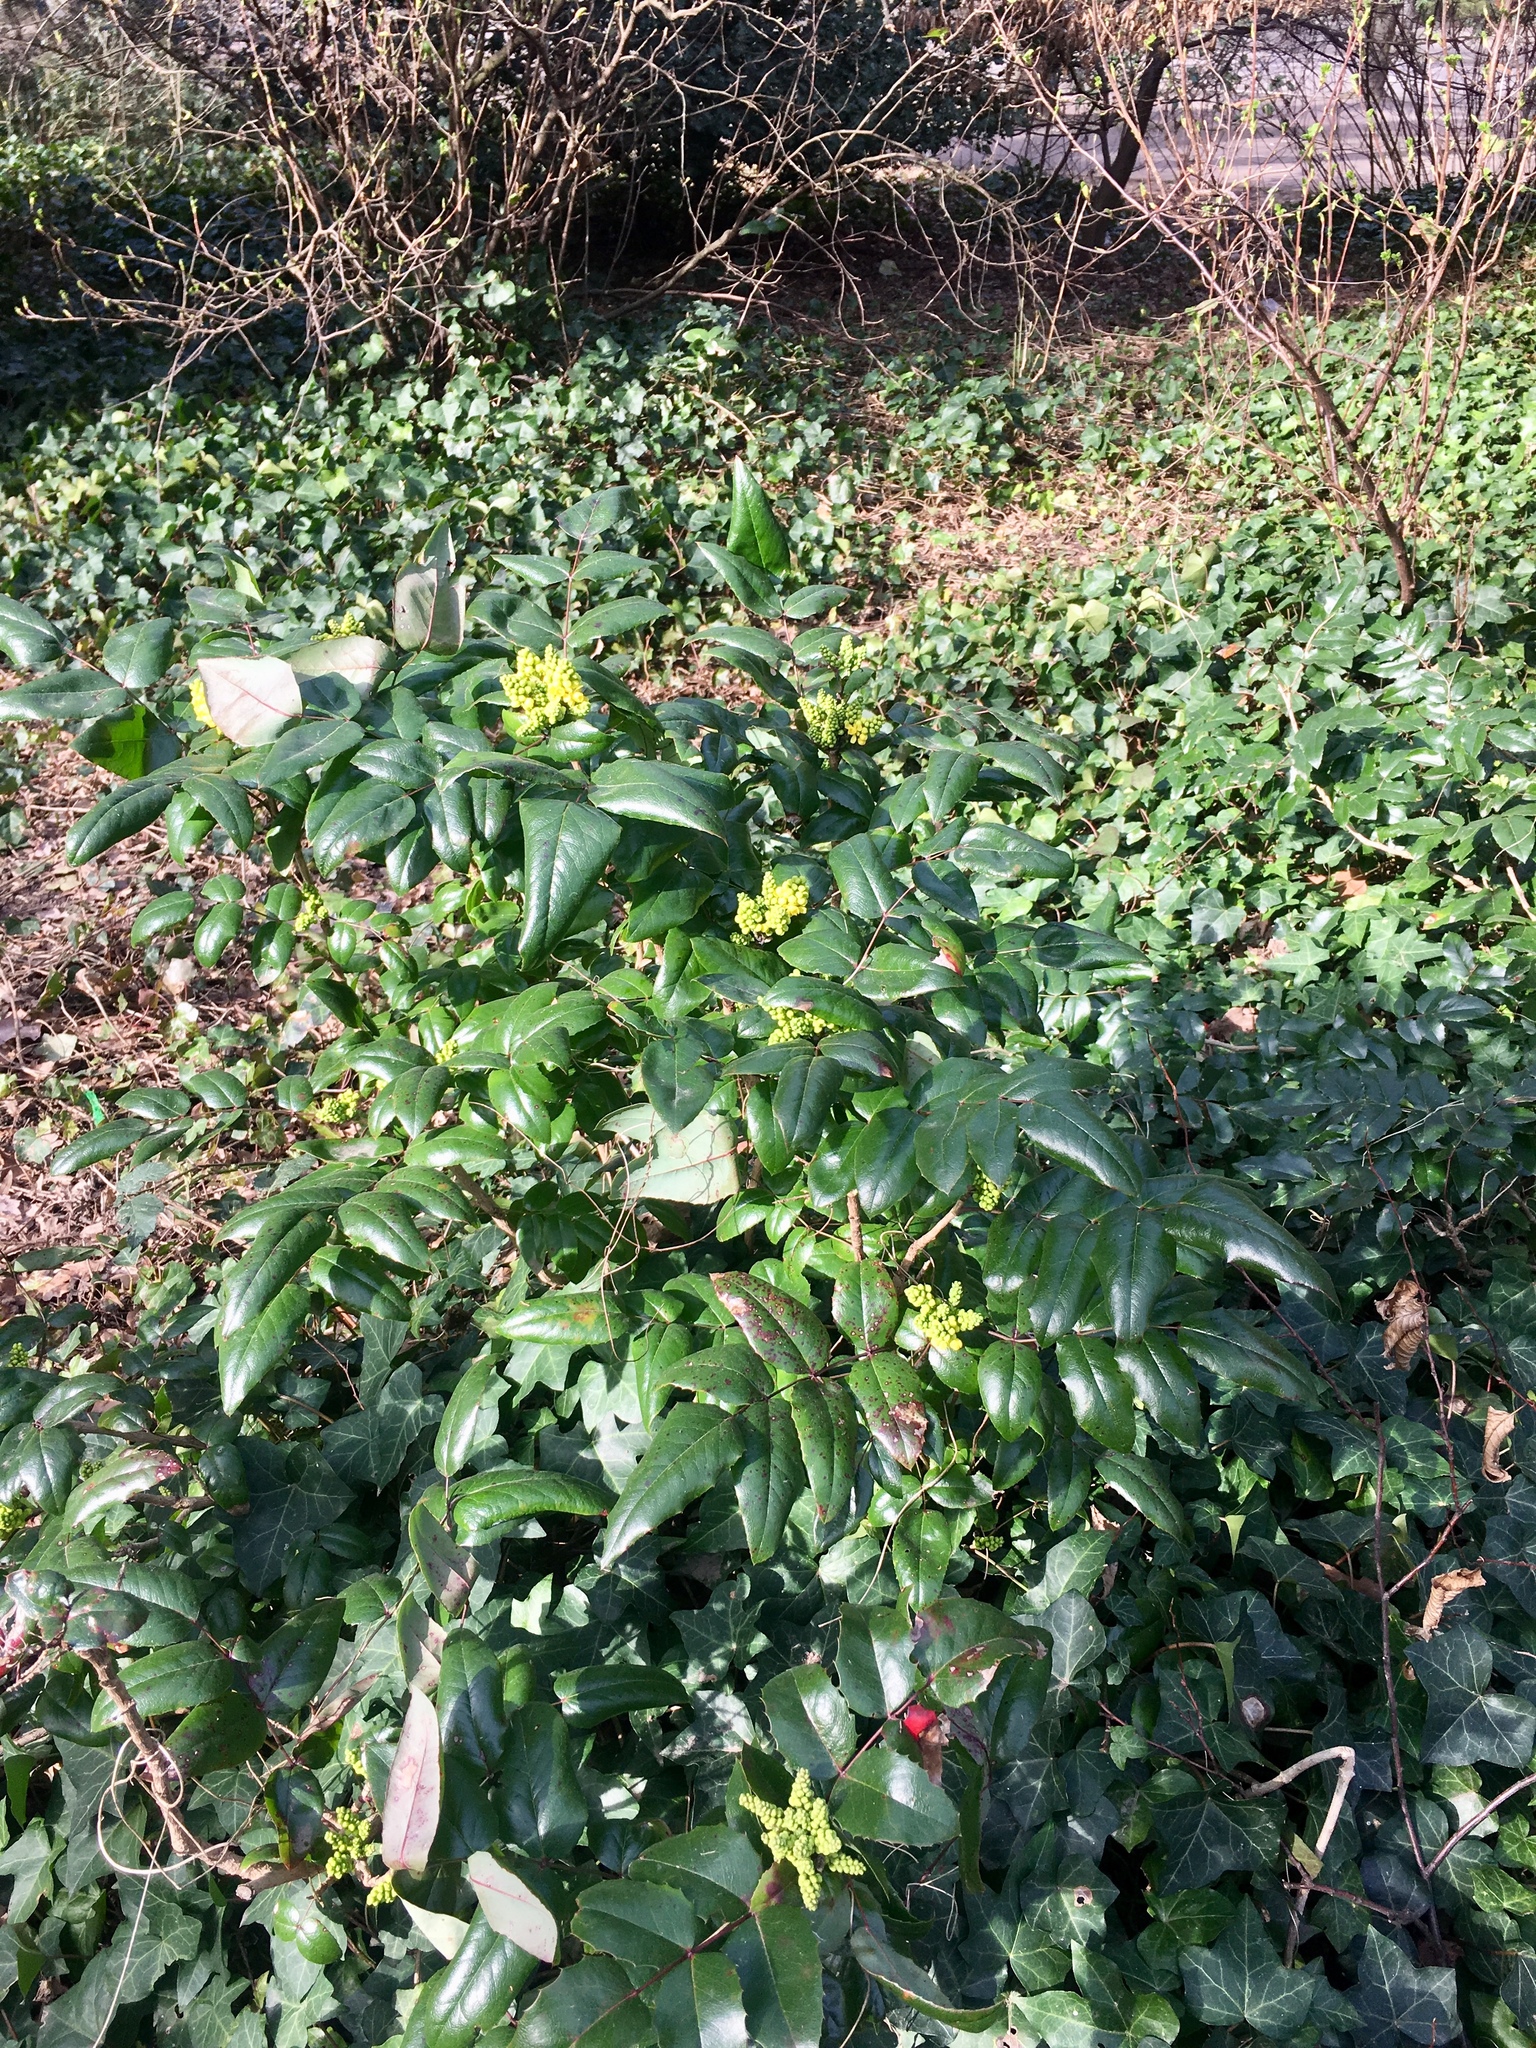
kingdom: Plantae
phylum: Tracheophyta
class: Magnoliopsida
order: Ranunculales
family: Berberidaceae
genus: Mahonia
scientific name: Mahonia aquifolium
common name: Oregon-grape
